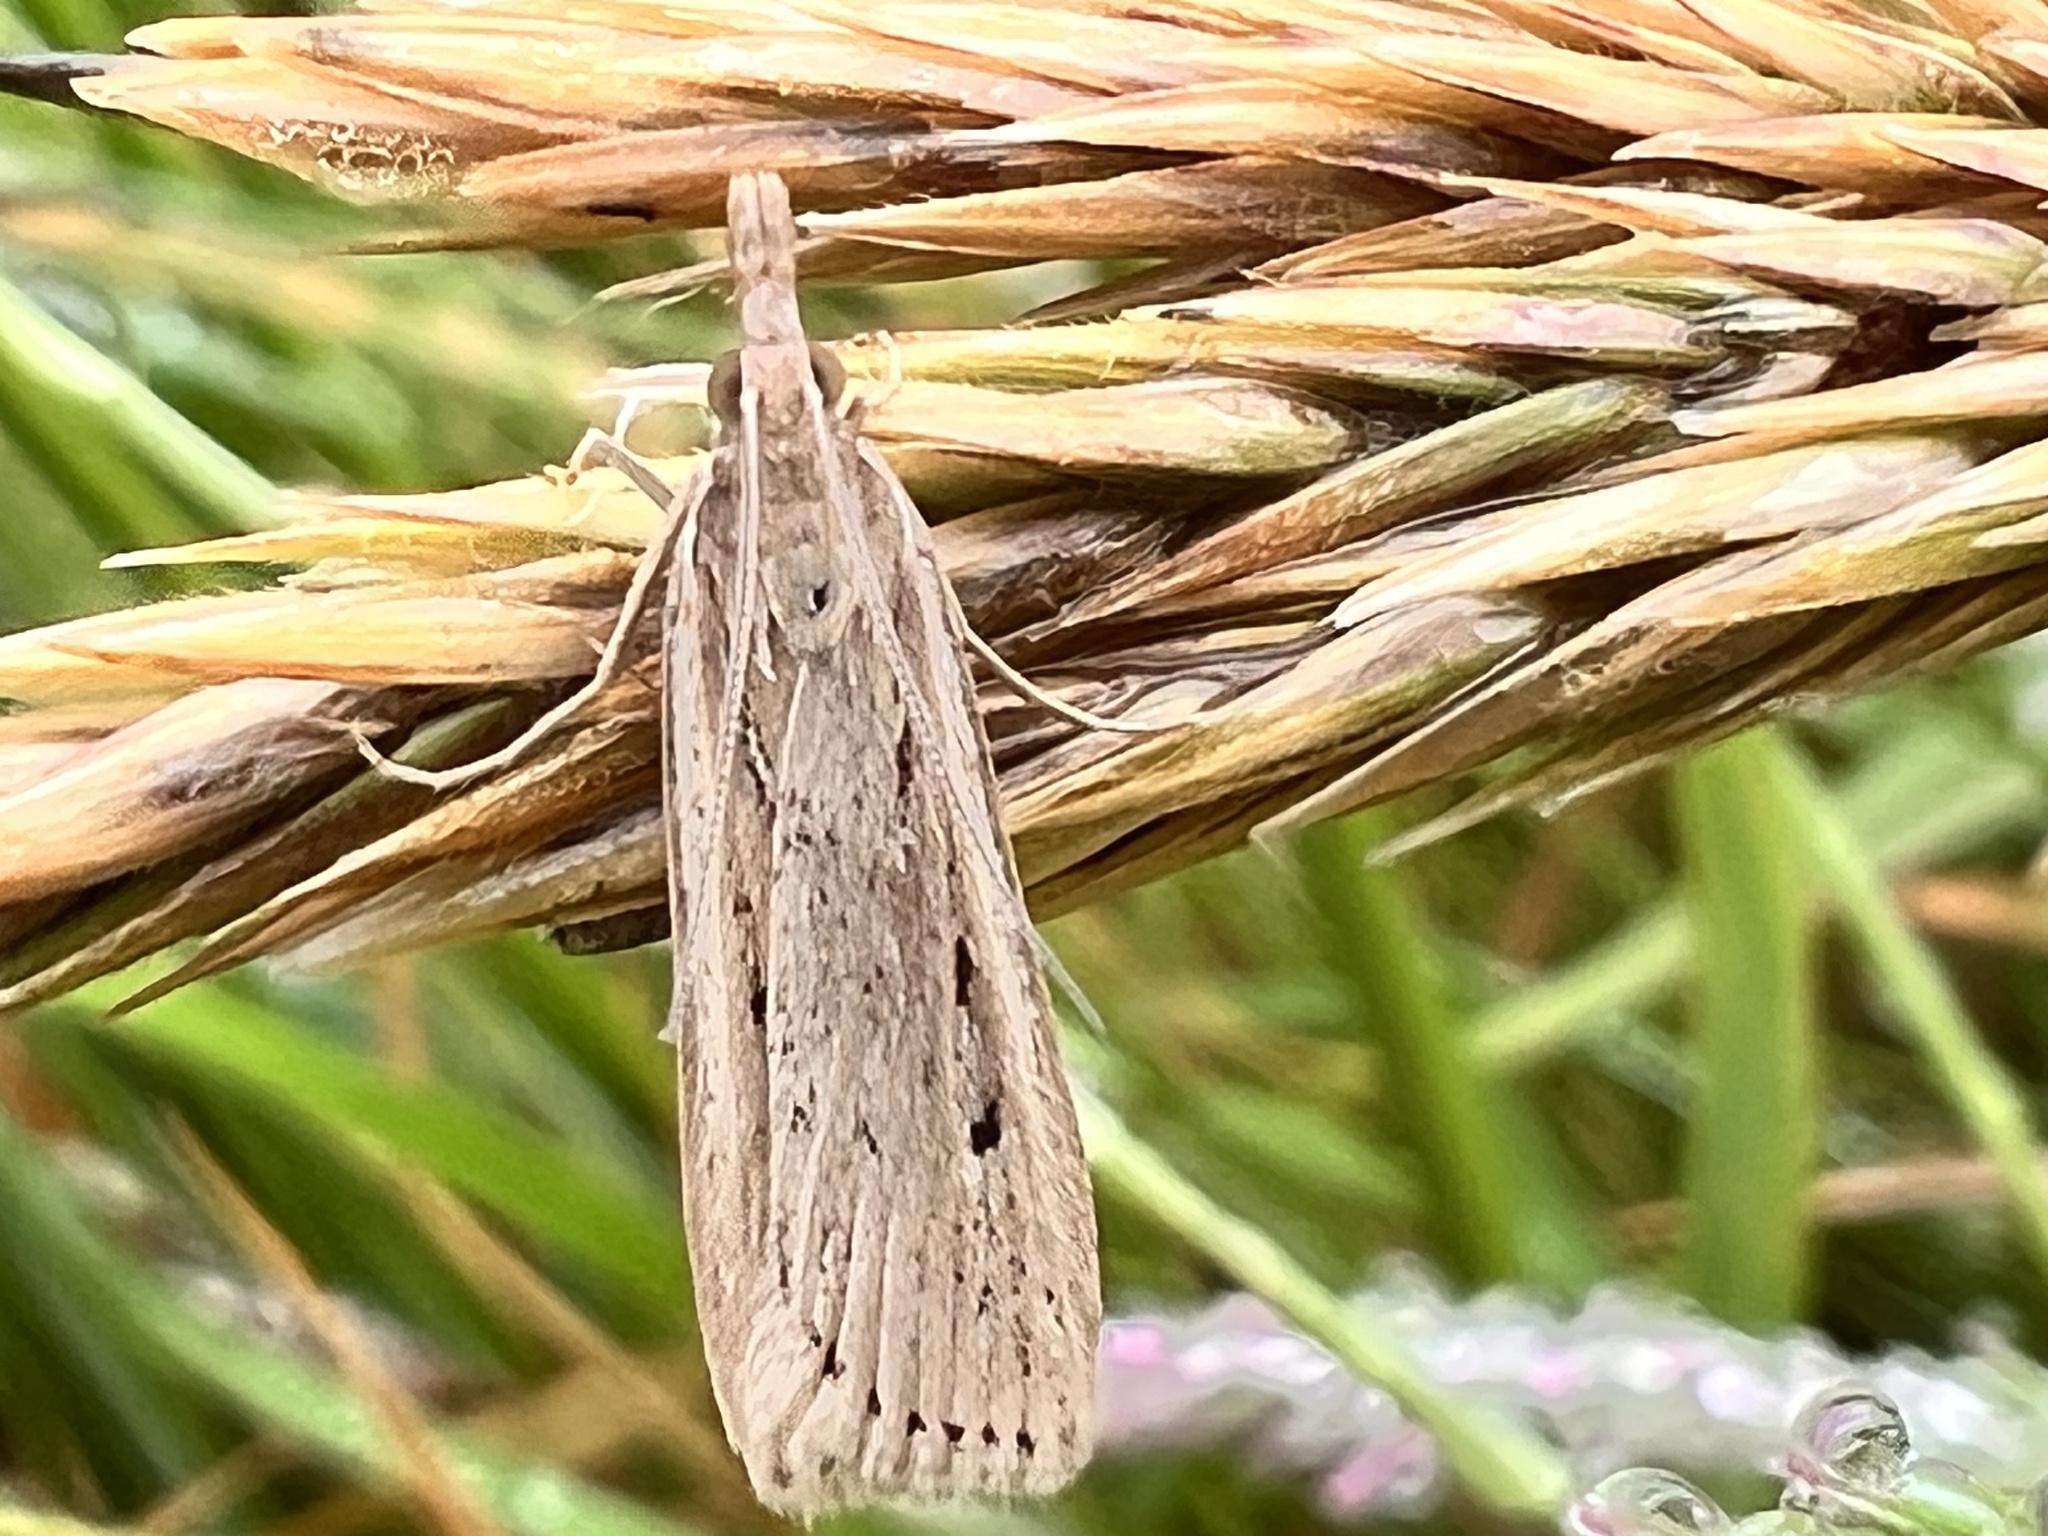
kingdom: Animalia
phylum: Arthropoda
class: Insecta
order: Lepidoptera
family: Crambidae
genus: Eudonia
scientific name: Eudonia sabulosella
